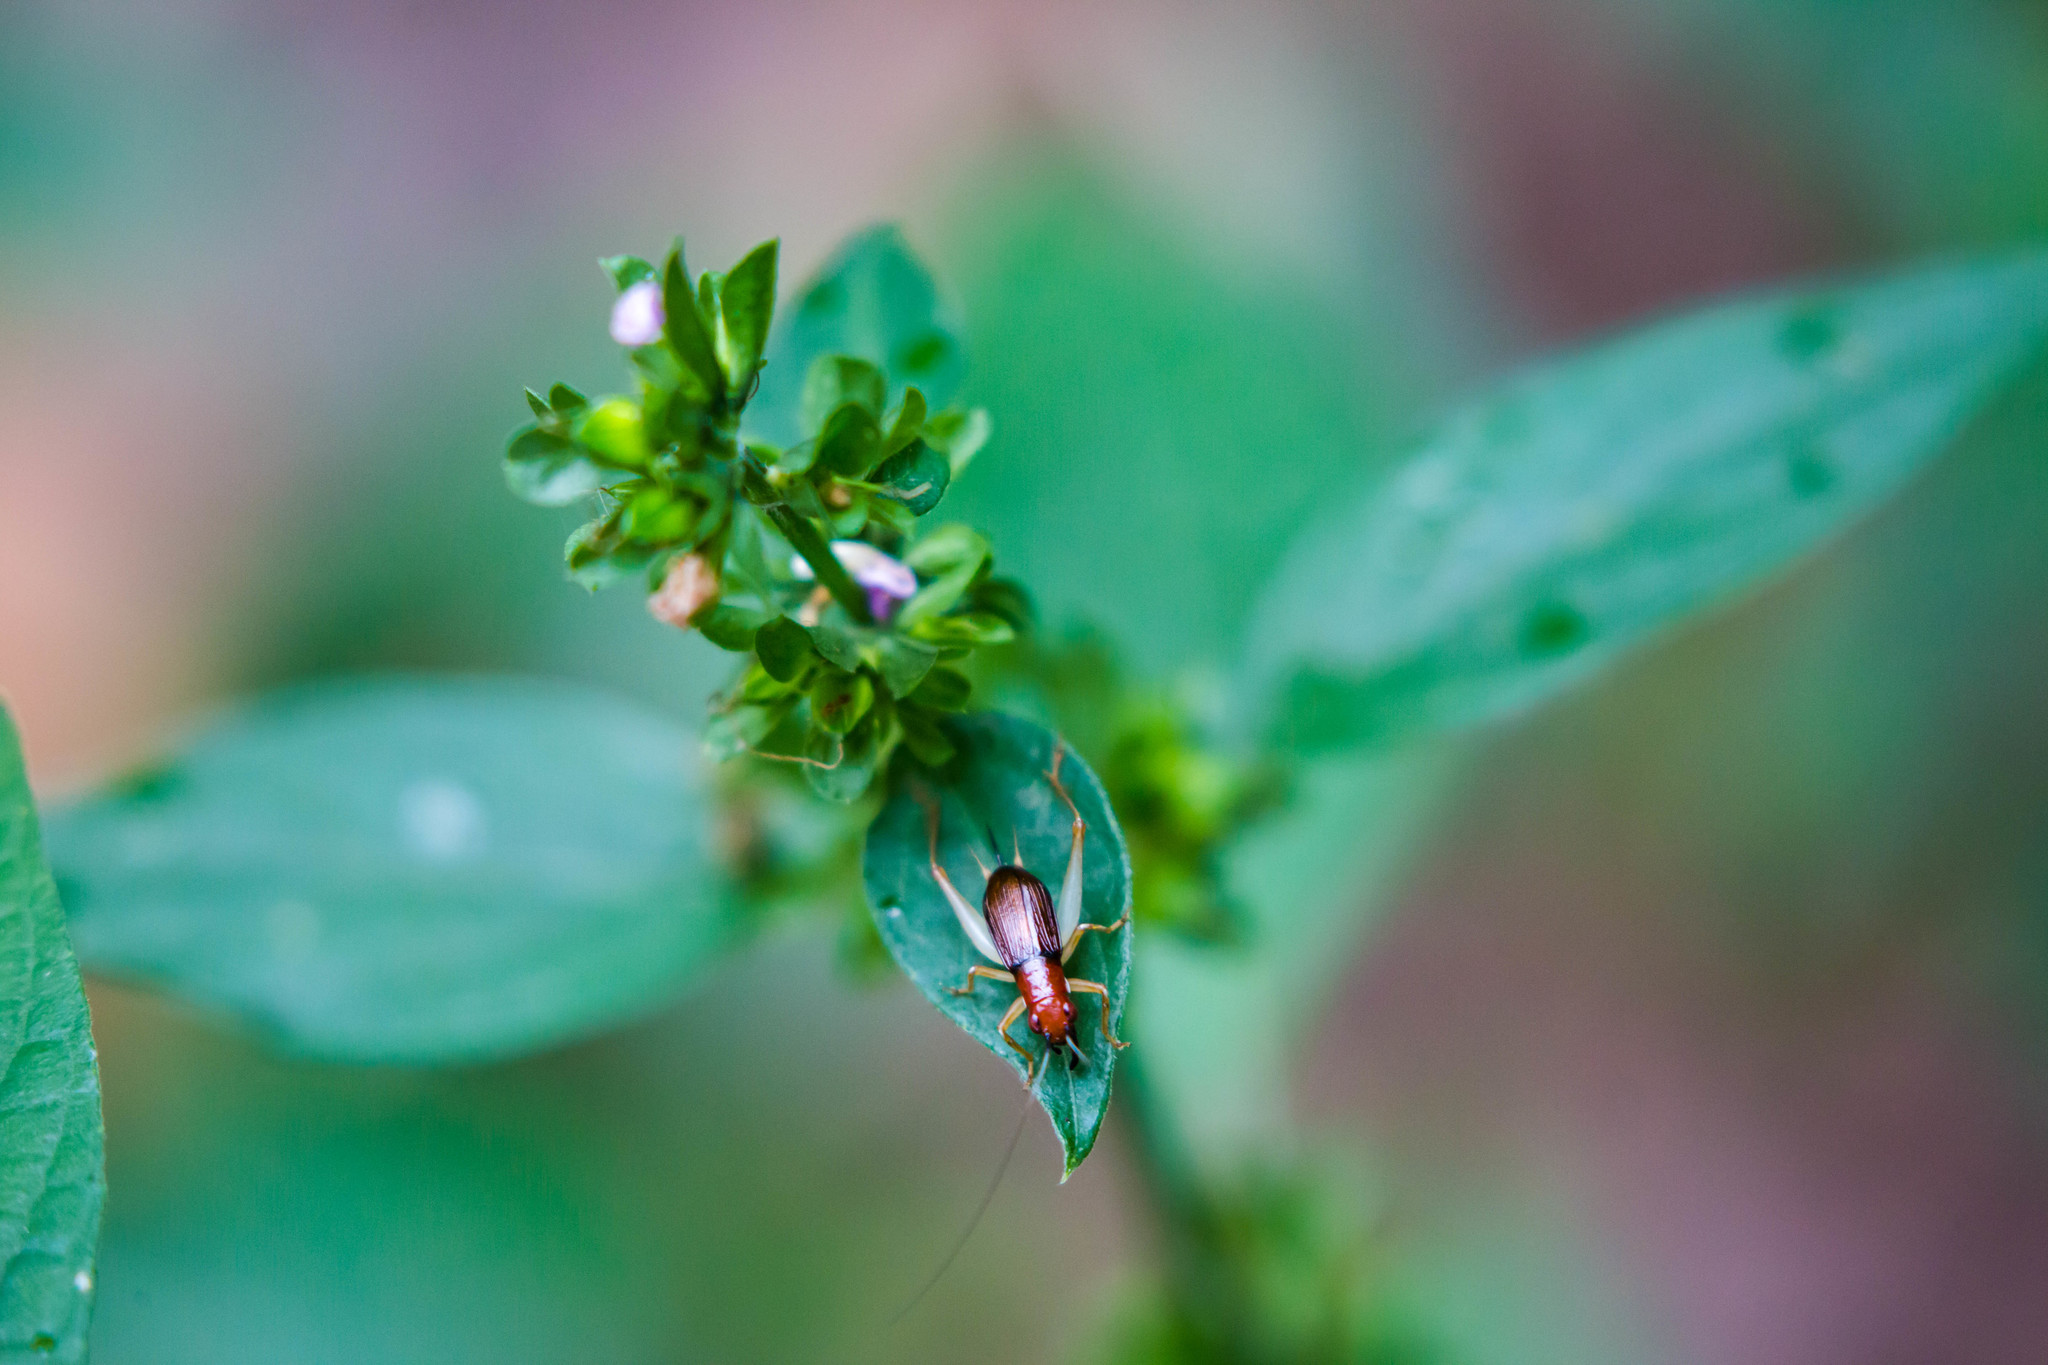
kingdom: Animalia
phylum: Arthropoda
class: Insecta
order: Orthoptera
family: Trigonidiidae
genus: Phyllopalpus
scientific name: Phyllopalpus pulchellus
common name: Handsome trig
